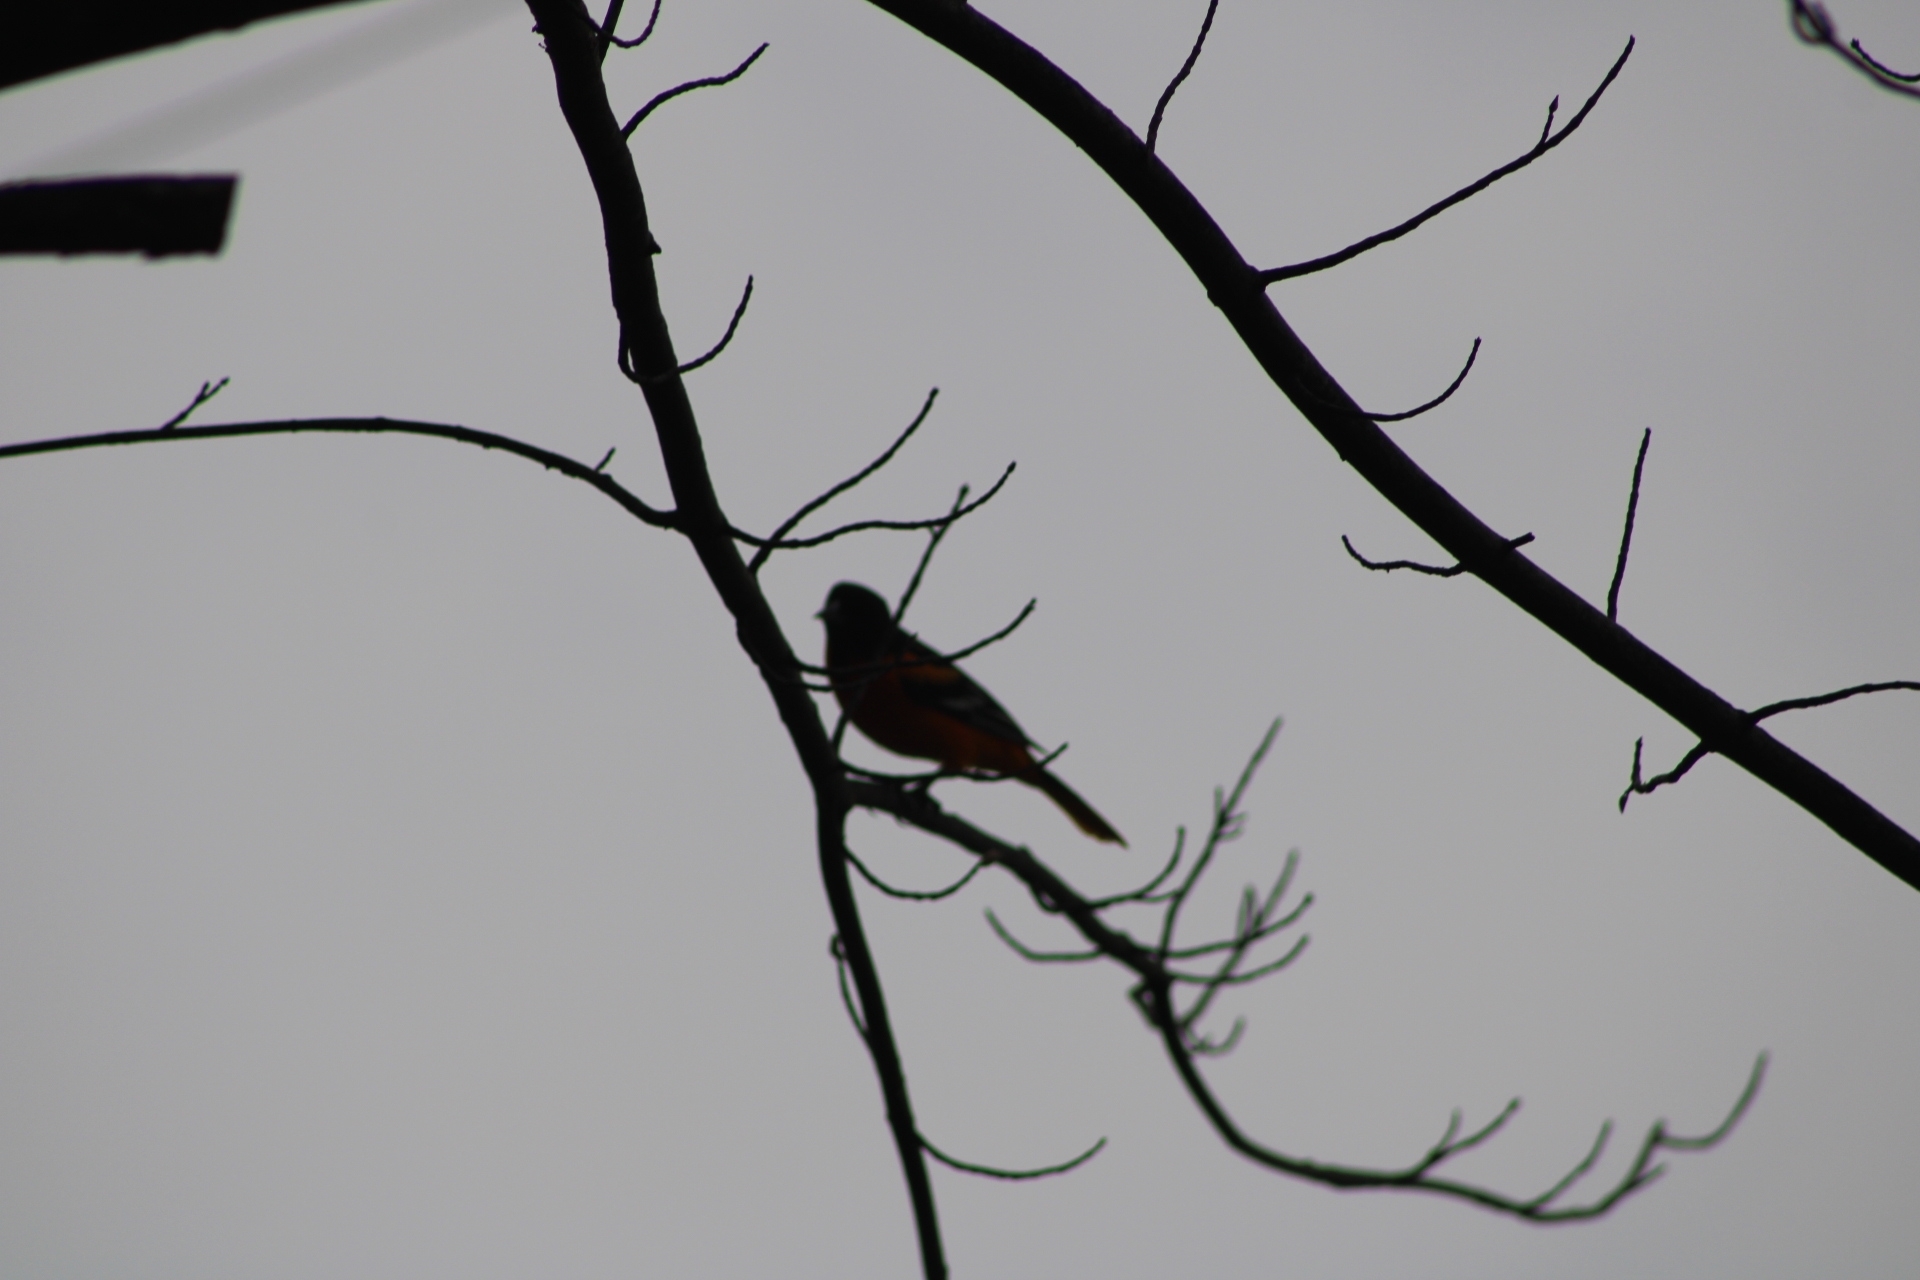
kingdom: Animalia
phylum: Chordata
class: Aves
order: Passeriformes
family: Icteridae
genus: Icterus
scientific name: Icterus galbula
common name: Baltimore oriole
